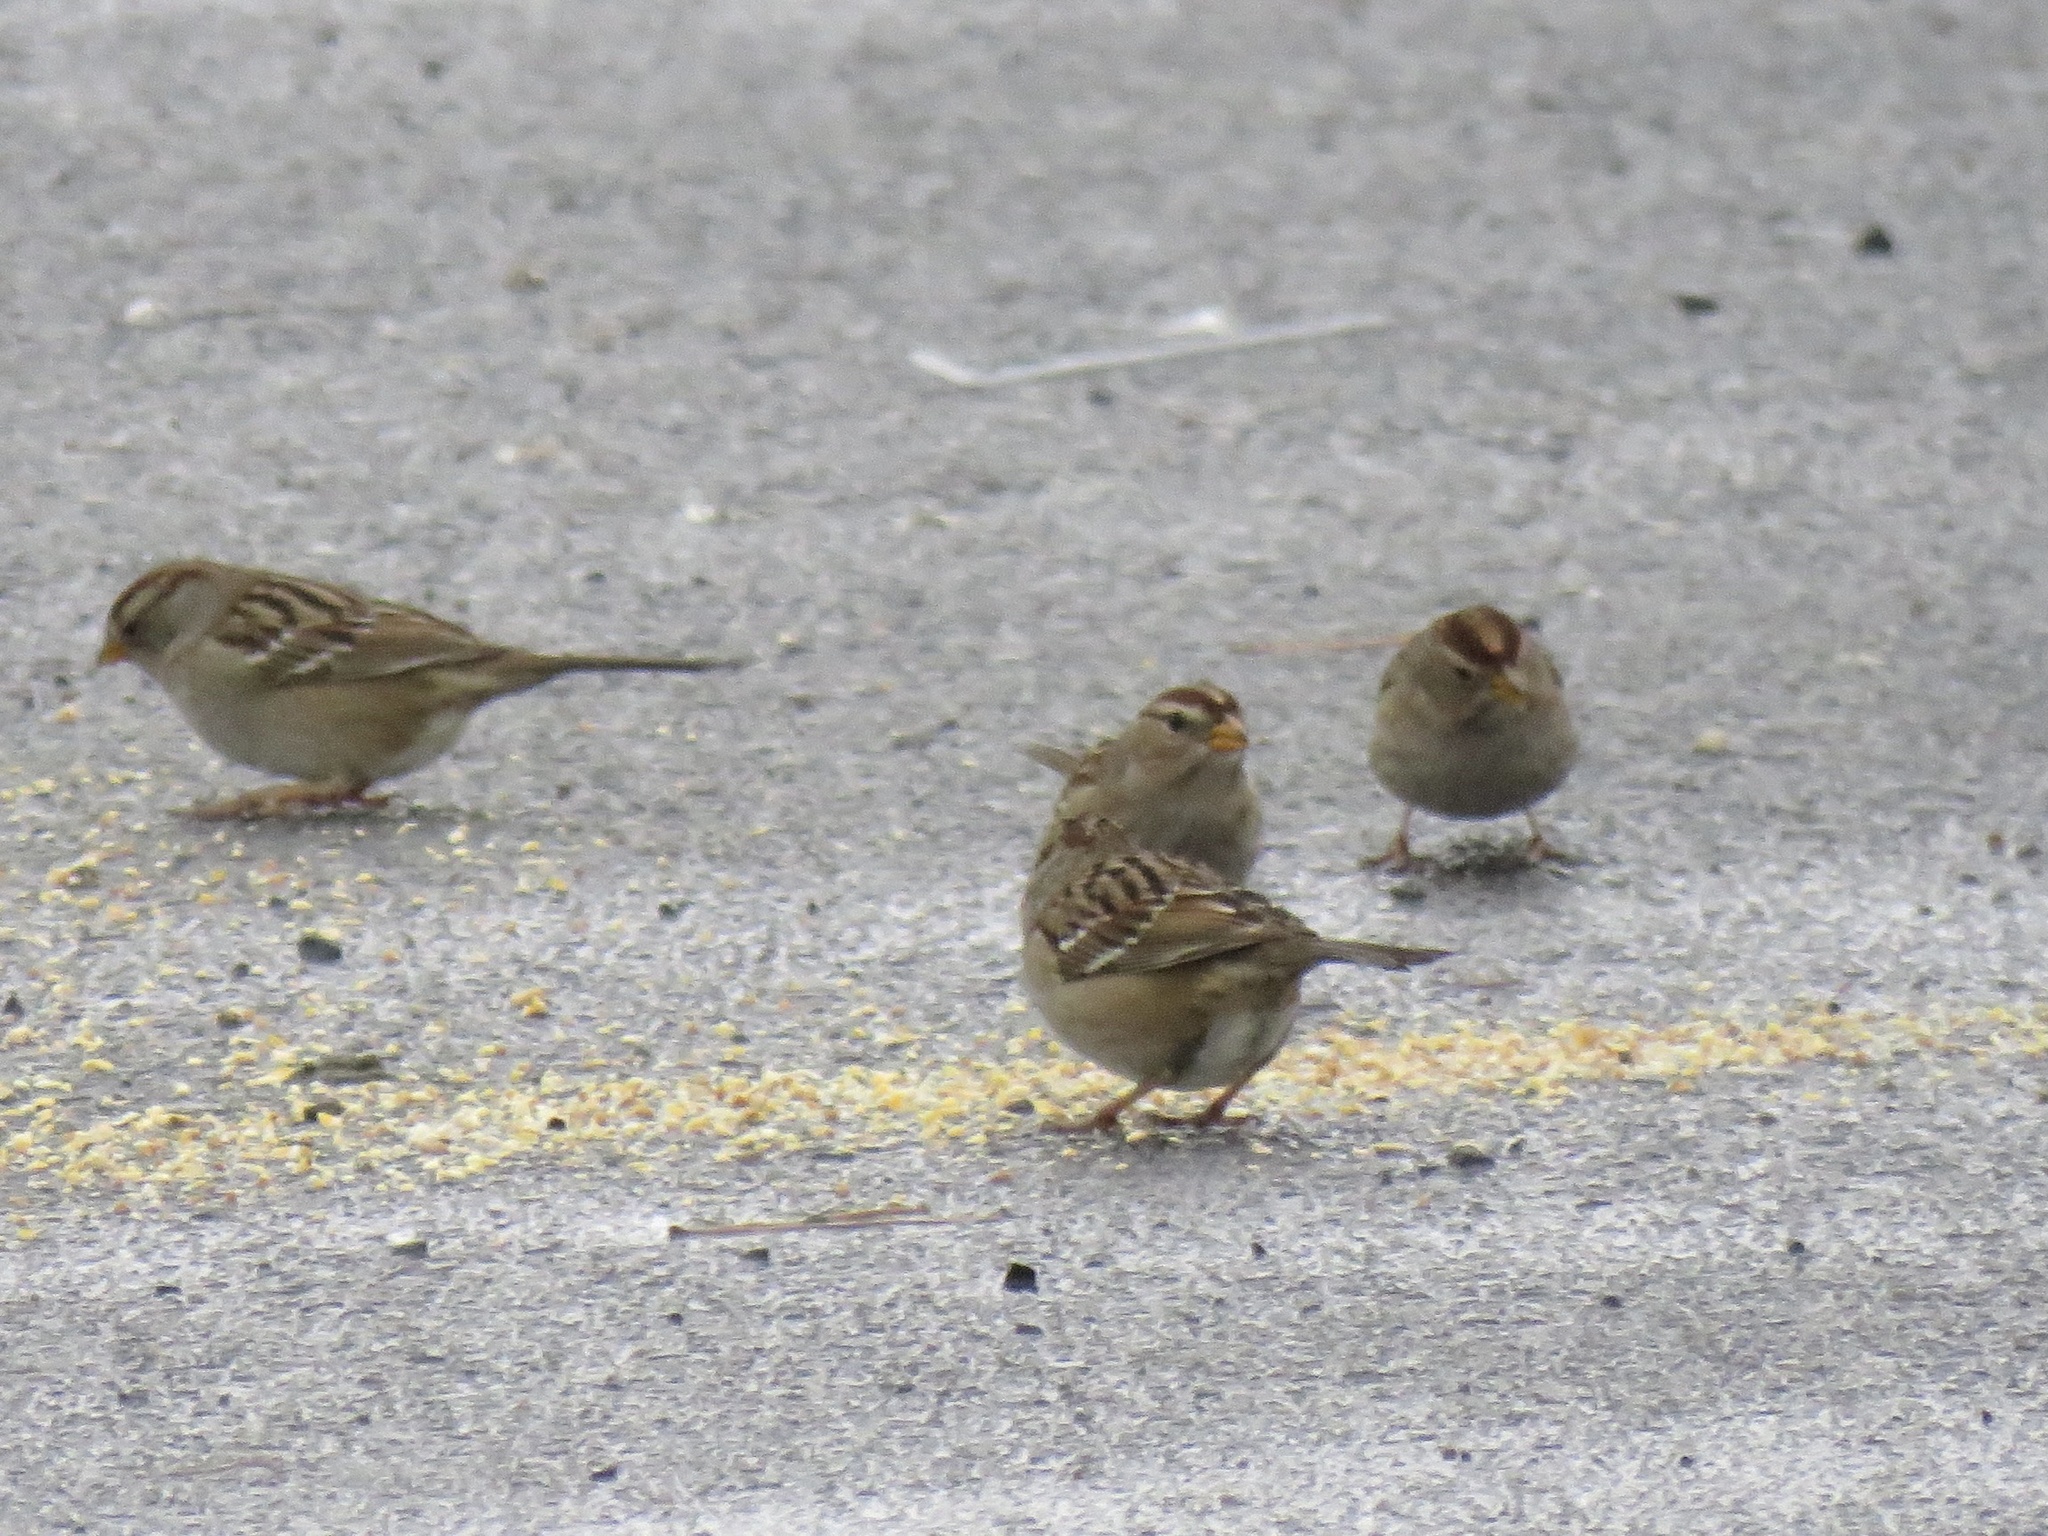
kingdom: Animalia
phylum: Chordata
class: Aves
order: Passeriformes
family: Passerellidae
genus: Zonotrichia
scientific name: Zonotrichia leucophrys
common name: White-crowned sparrow
